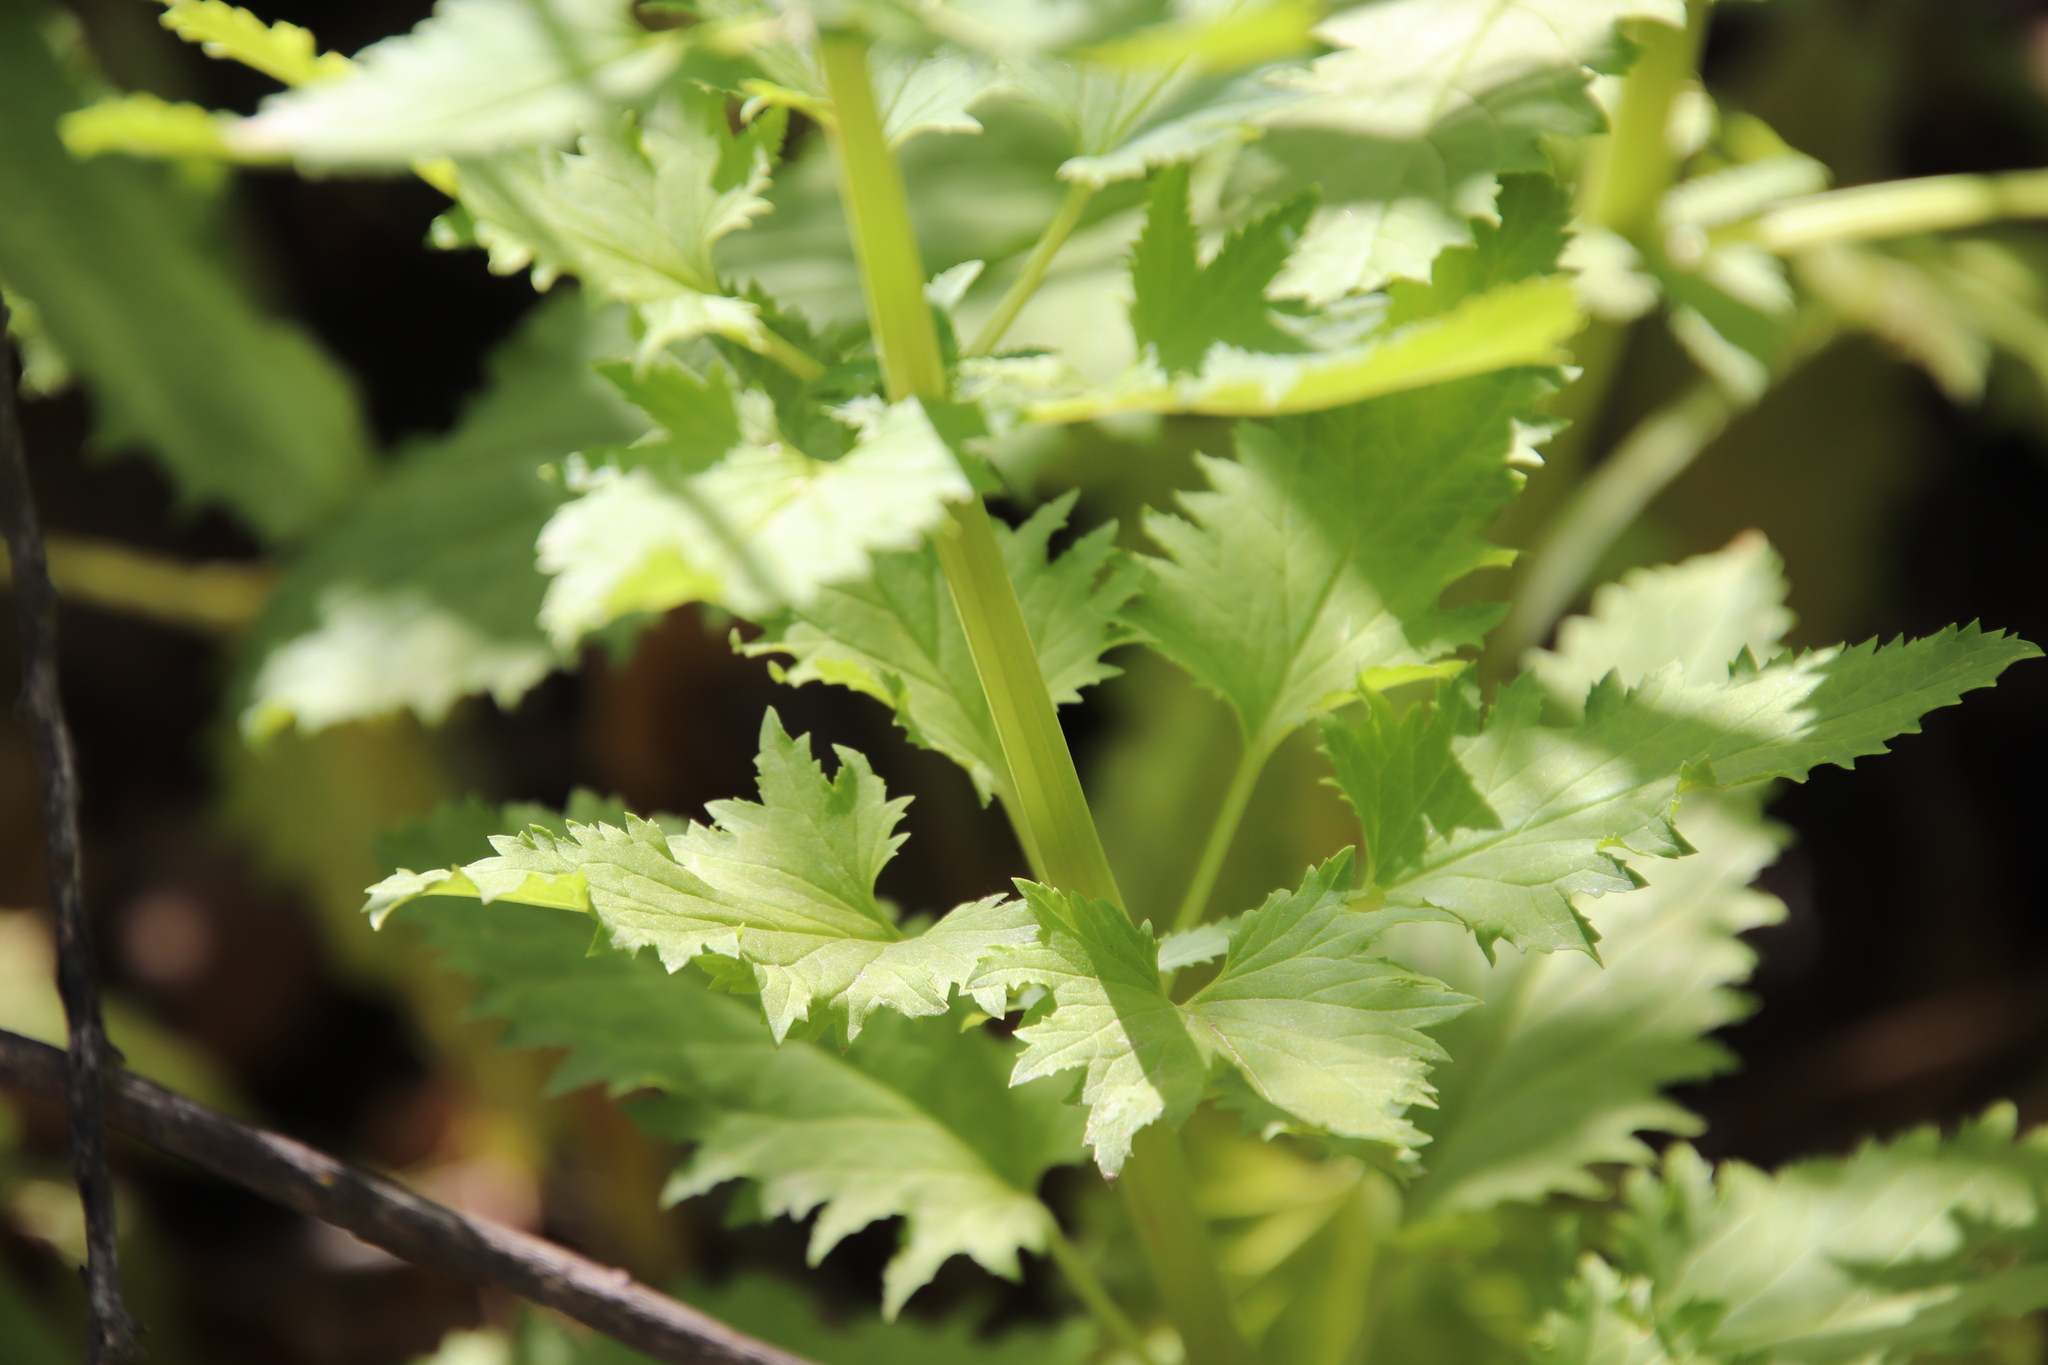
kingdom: Plantae
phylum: Tracheophyta
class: Magnoliopsida
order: Lamiales
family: Scrophulariaceae
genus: Scrophularia
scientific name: Scrophularia californica
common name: California figwort
